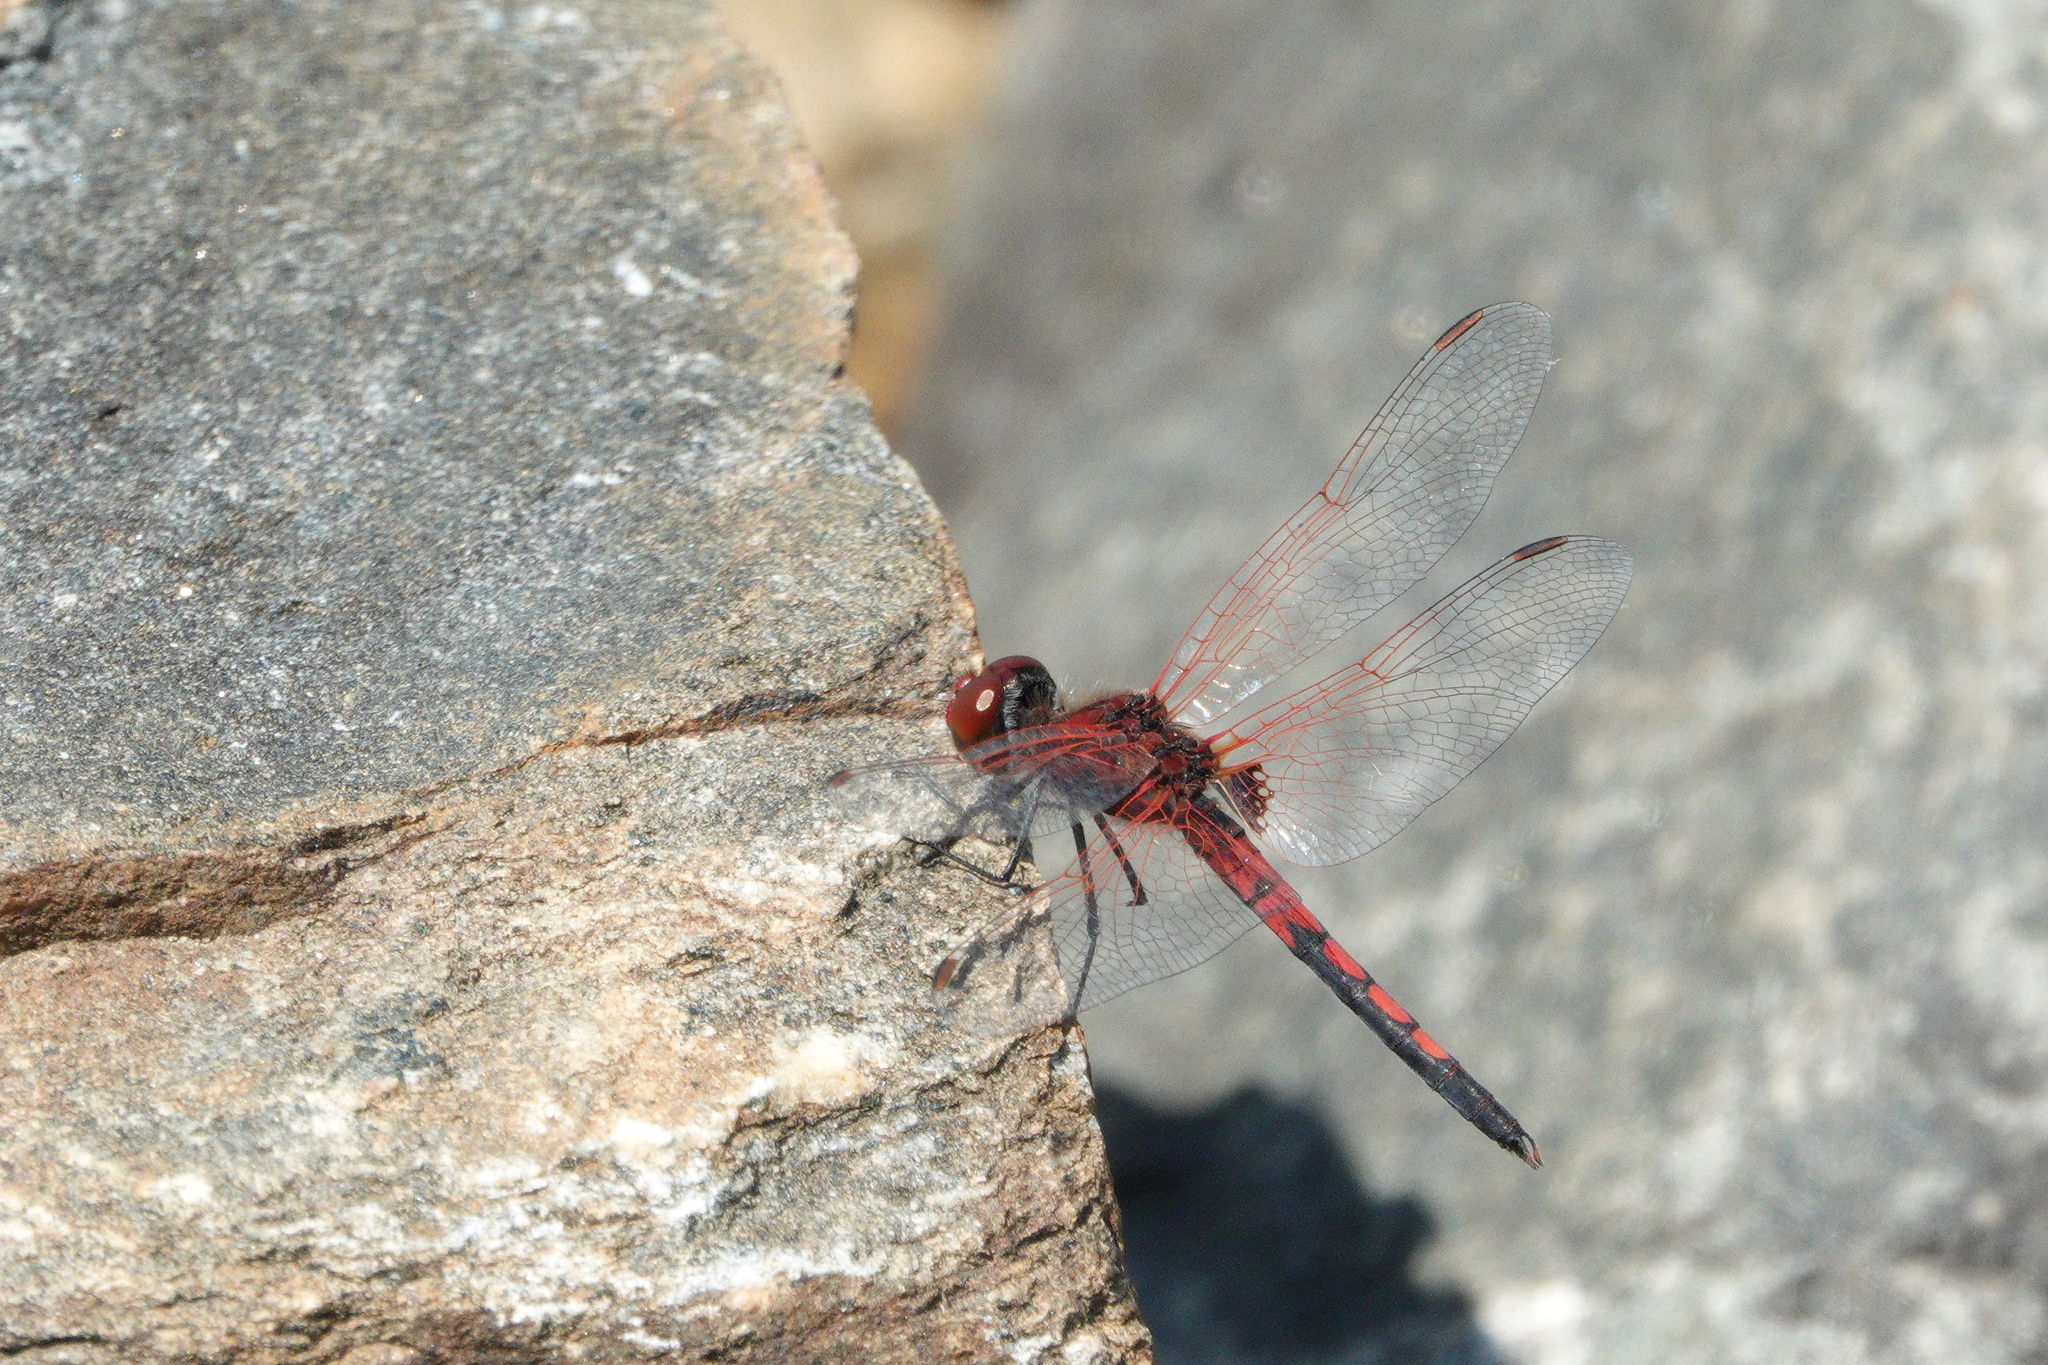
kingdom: Animalia
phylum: Arthropoda
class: Insecta
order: Odonata
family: Libellulidae
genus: Celithemis
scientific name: Celithemis bertha
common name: Red-veined pennant
